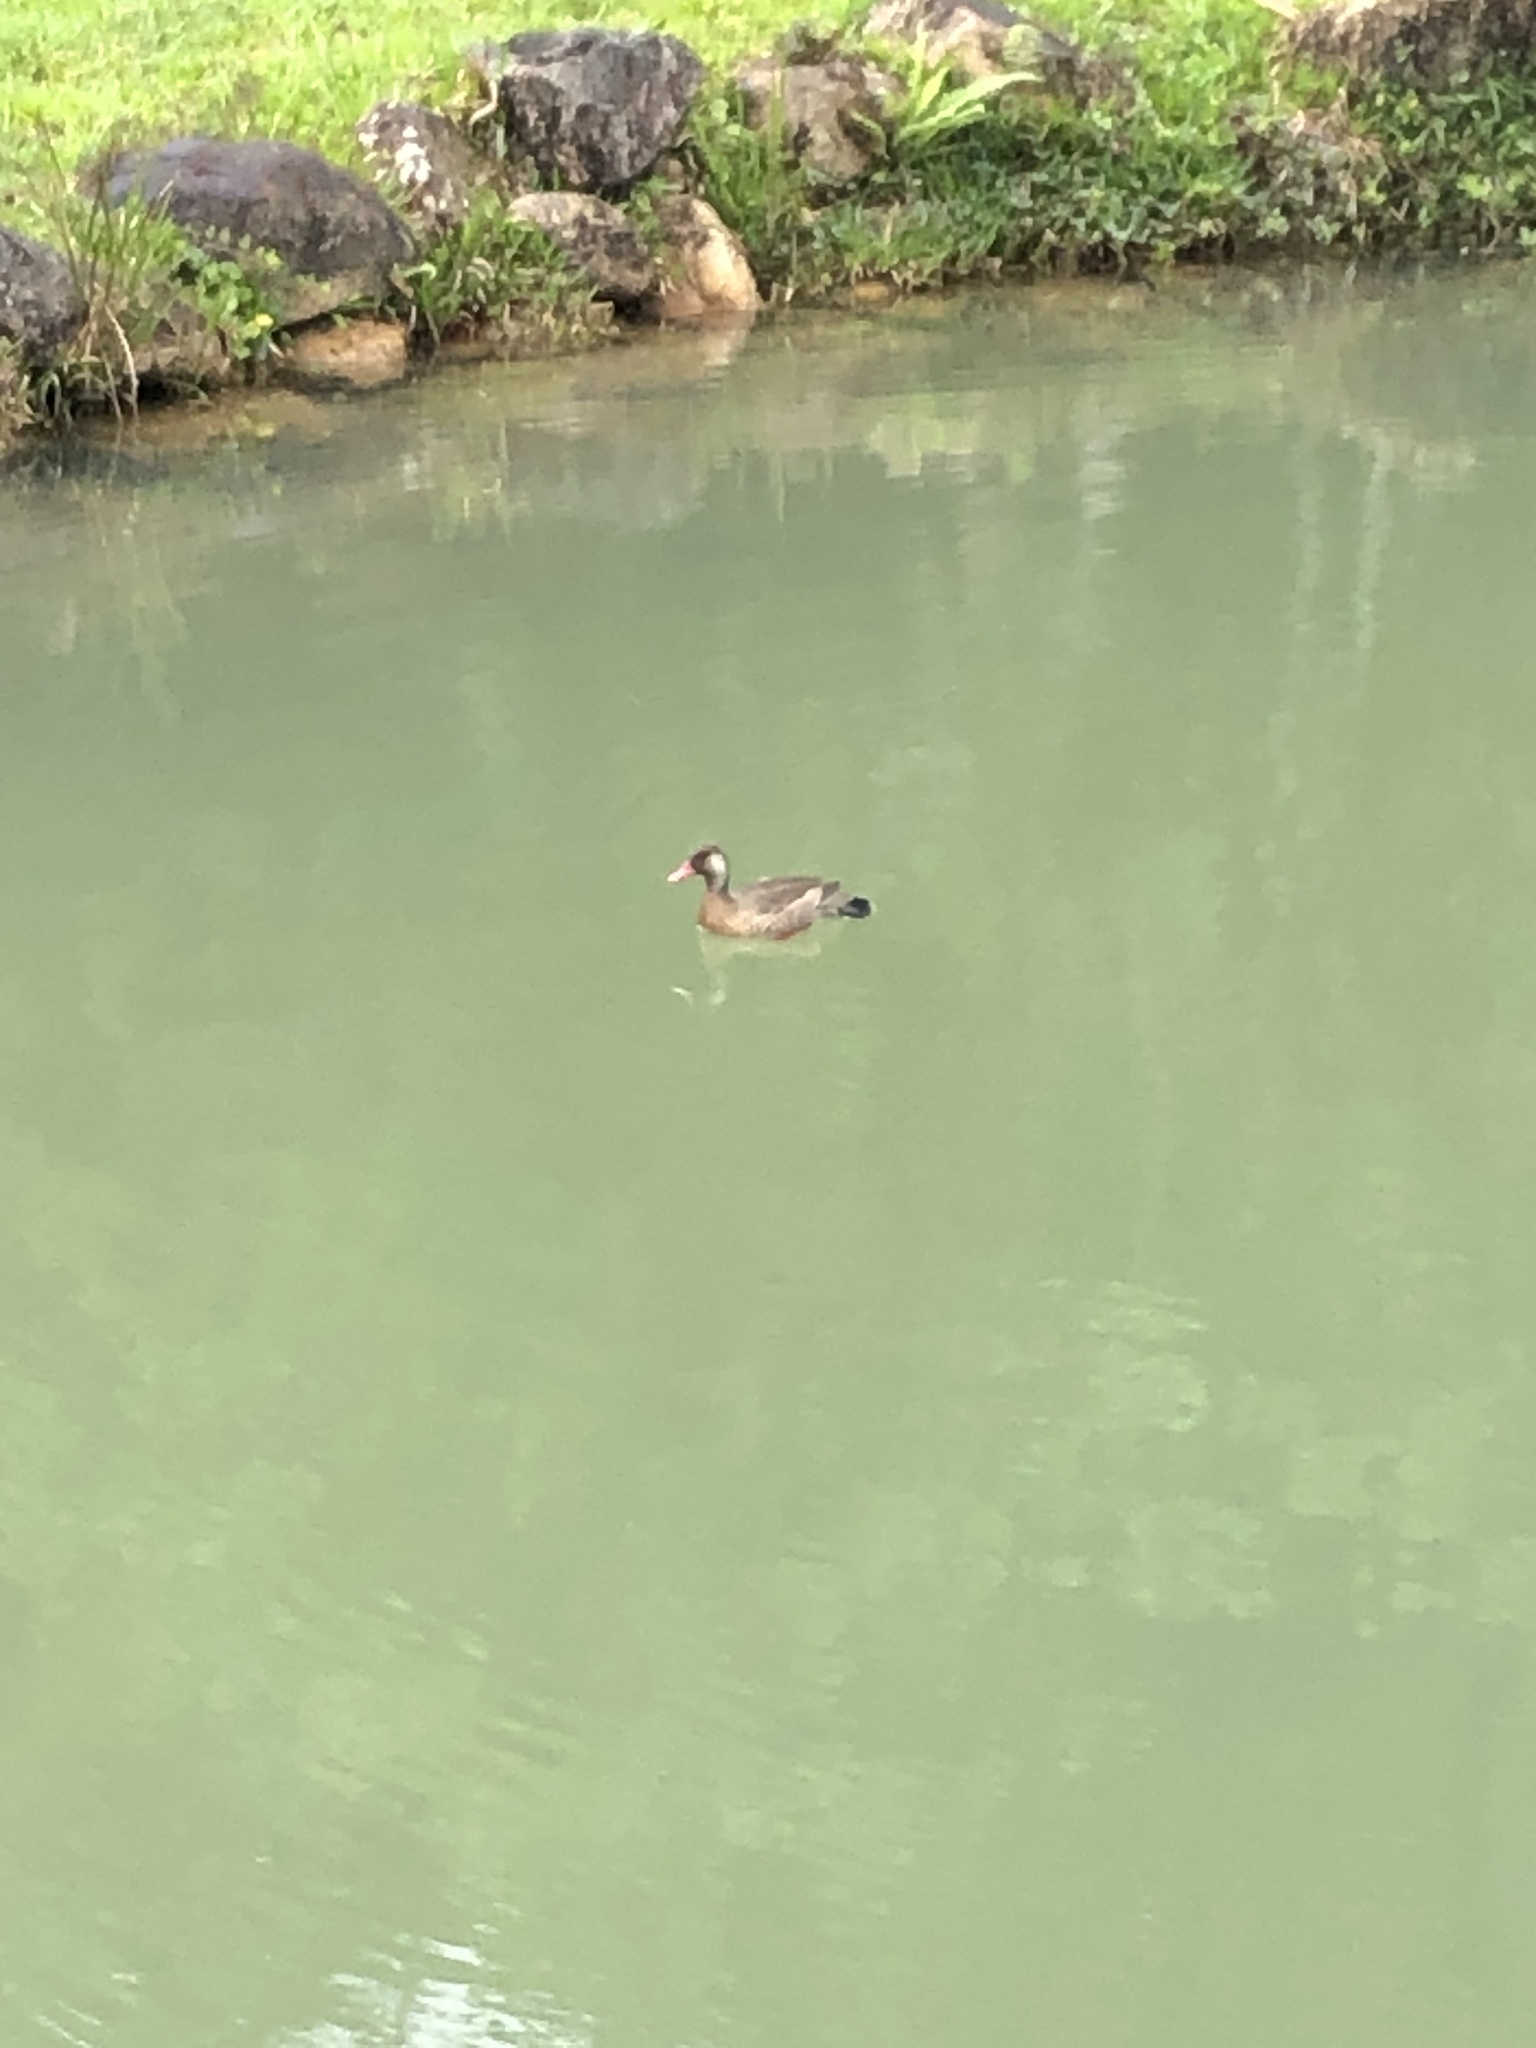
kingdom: Animalia
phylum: Chordata
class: Aves
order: Anseriformes
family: Anatidae
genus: Amazonetta
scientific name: Amazonetta brasiliensis
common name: Brazilian teal
